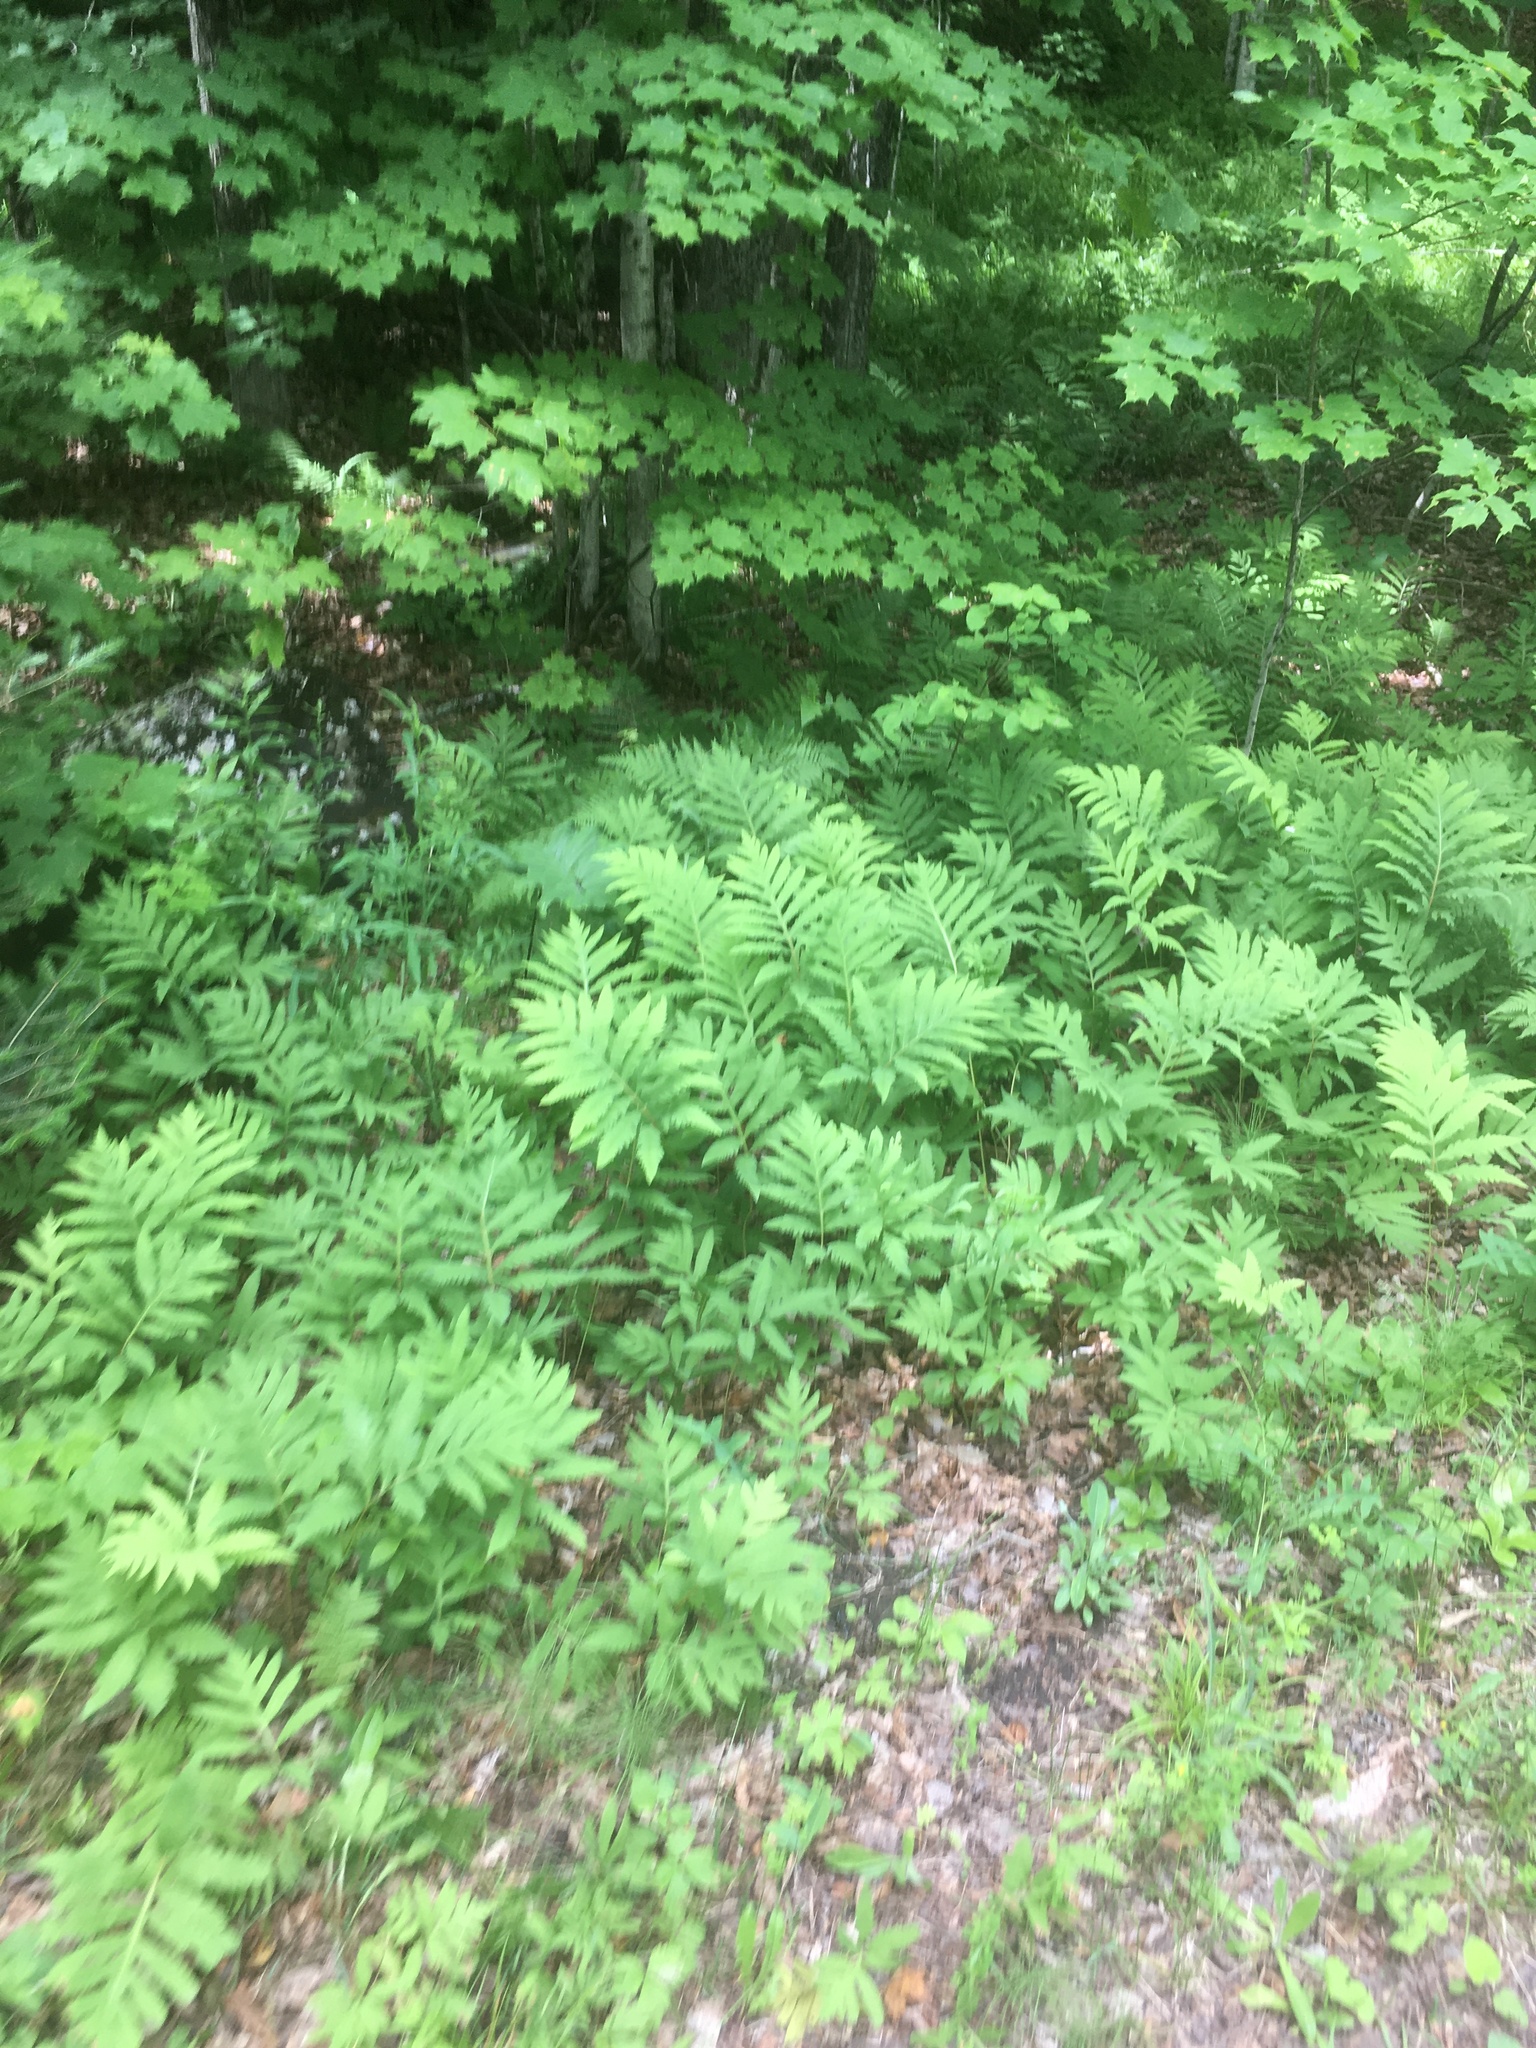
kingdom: Plantae
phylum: Tracheophyta
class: Polypodiopsida
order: Polypodiales
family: Onocleaceae
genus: Onoclea
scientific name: Onoclea sensibilis
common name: Sensitive fern
